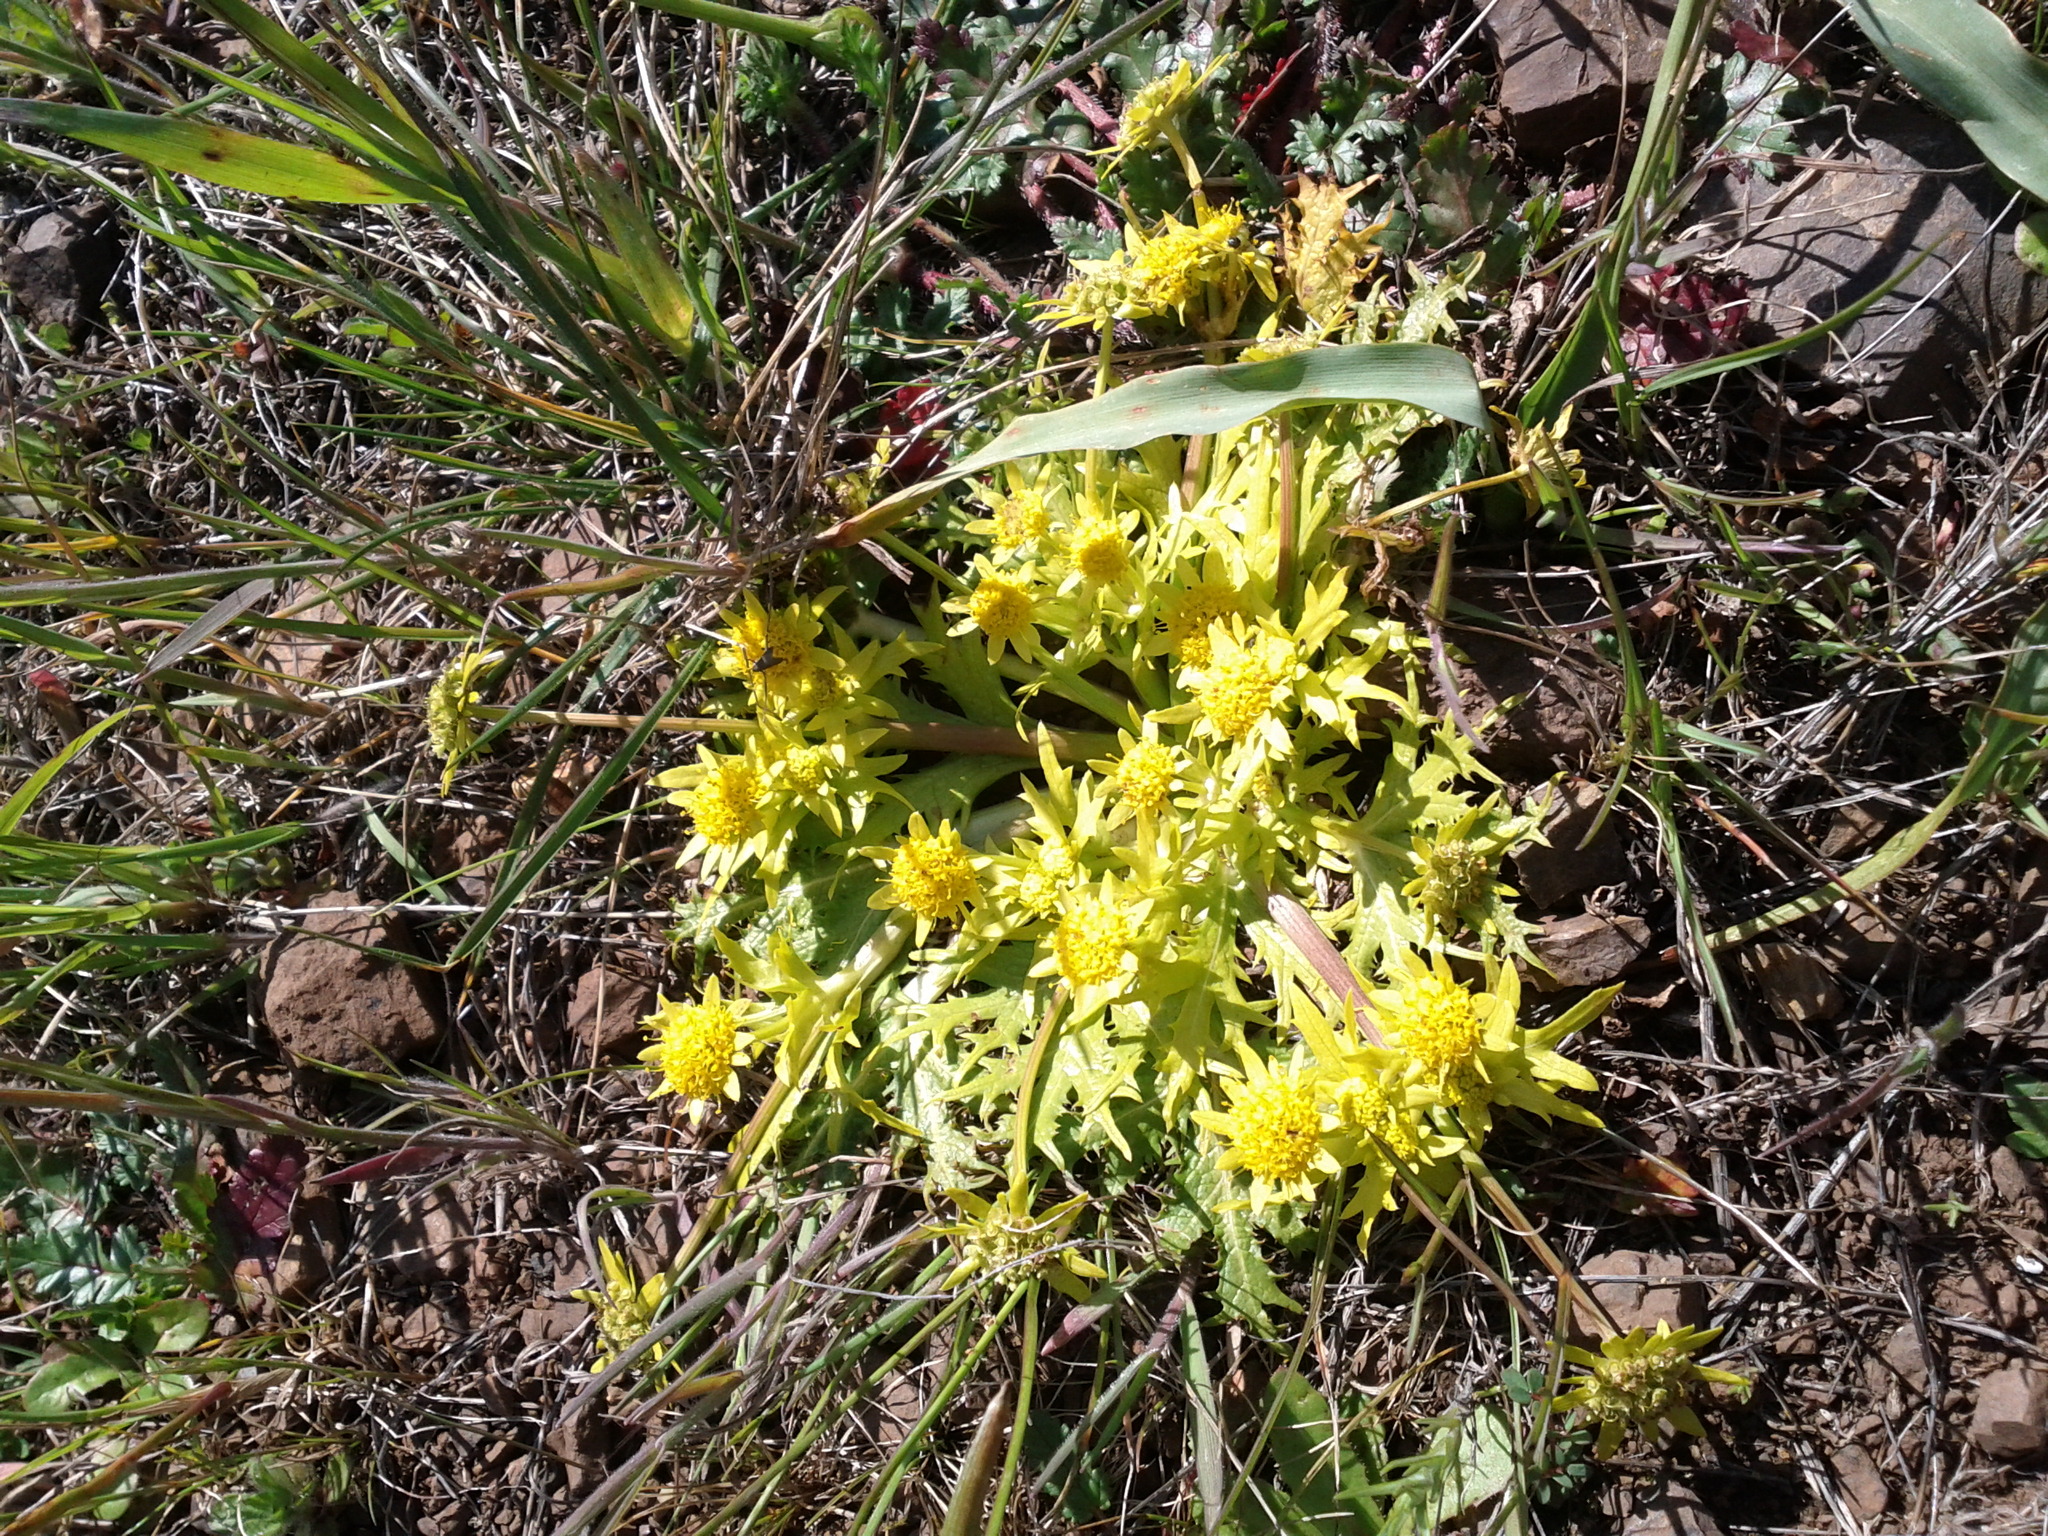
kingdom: Plantae
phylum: Tracheophyta
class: Magnoliopsida
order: Apiales
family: Apiaceae
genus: Sanicula
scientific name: Sanicula arctopoides
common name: Footsteps-of-spring
